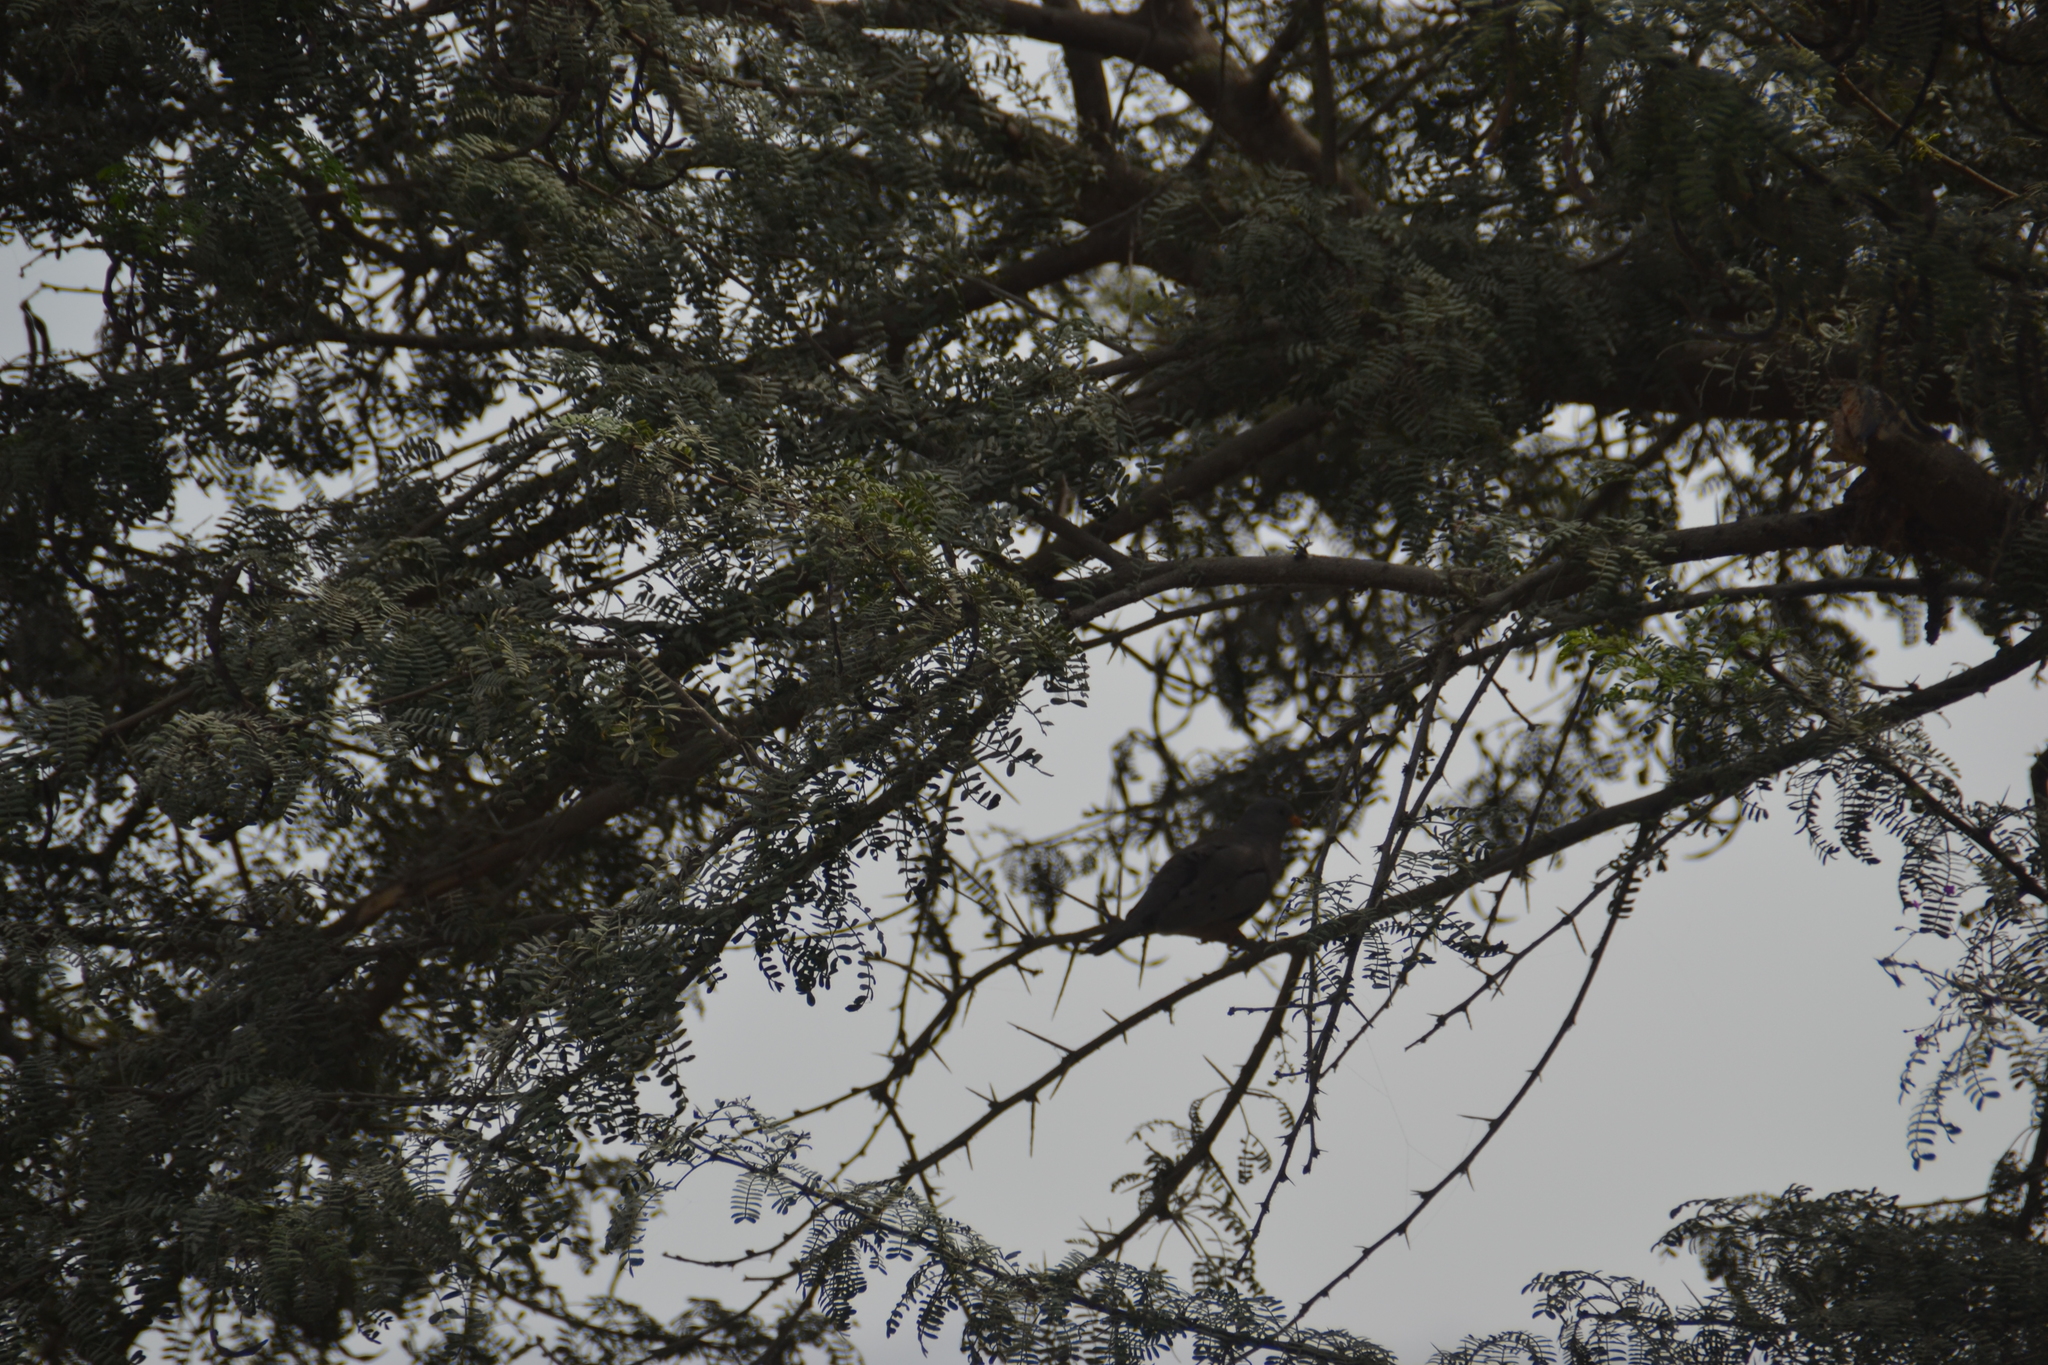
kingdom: Animalia
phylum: Chordata
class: Aves
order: Columbiformes
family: Columbidae
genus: Columbina
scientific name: Columbina cruziana
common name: Croaking ground dove
